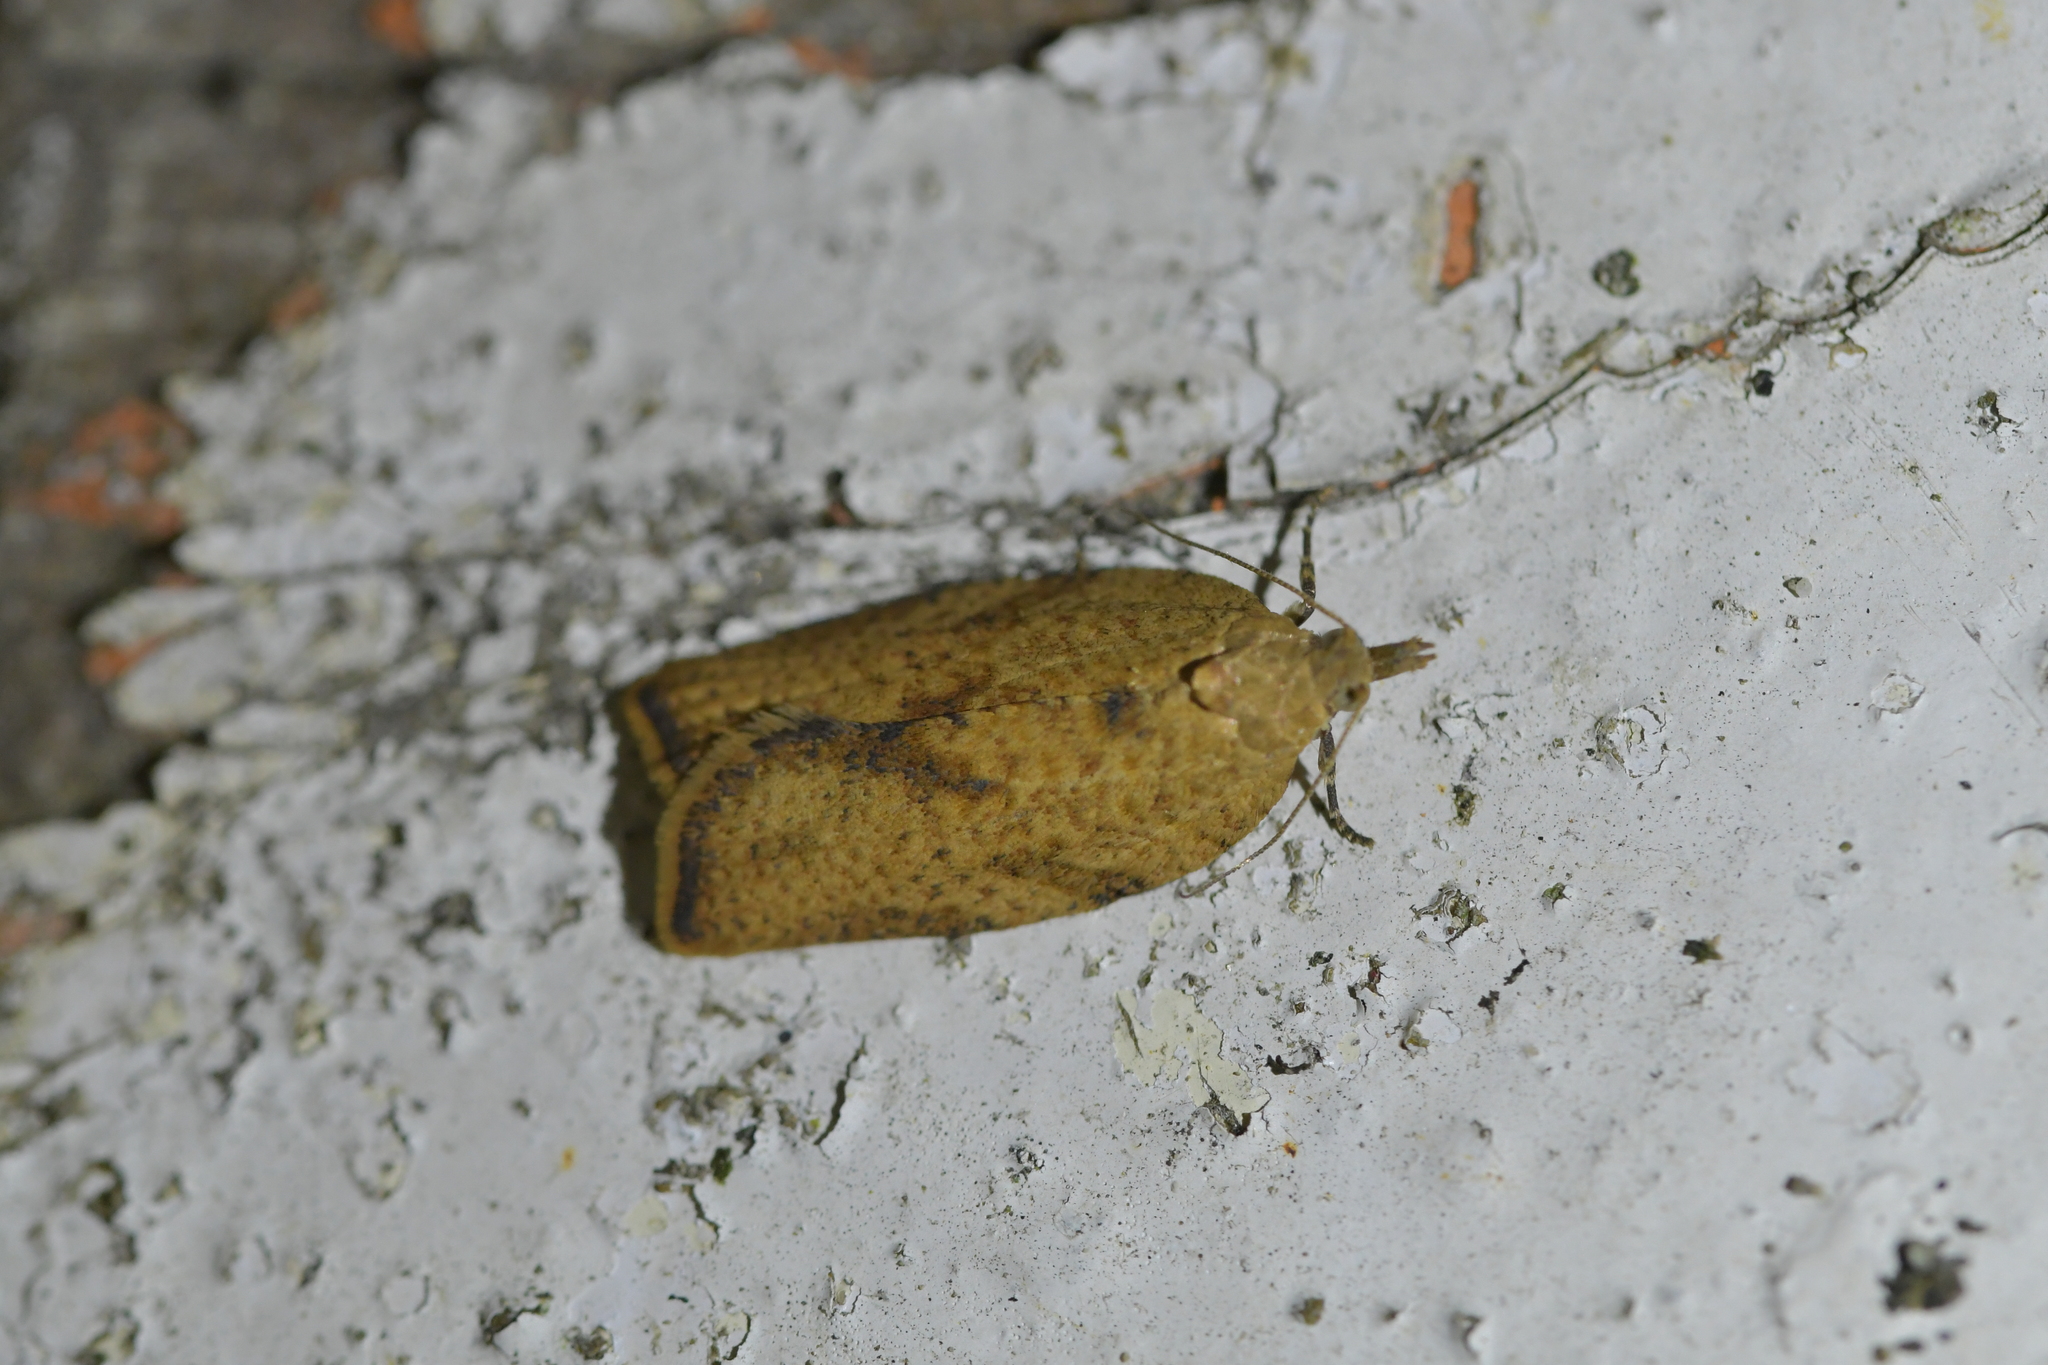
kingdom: Animalia
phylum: Arthropoda
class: Insecta
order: Lepidoptera
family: Tortricidae
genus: Epiphyas
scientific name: Epiphyas postvittana
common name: Light brown apple moth
